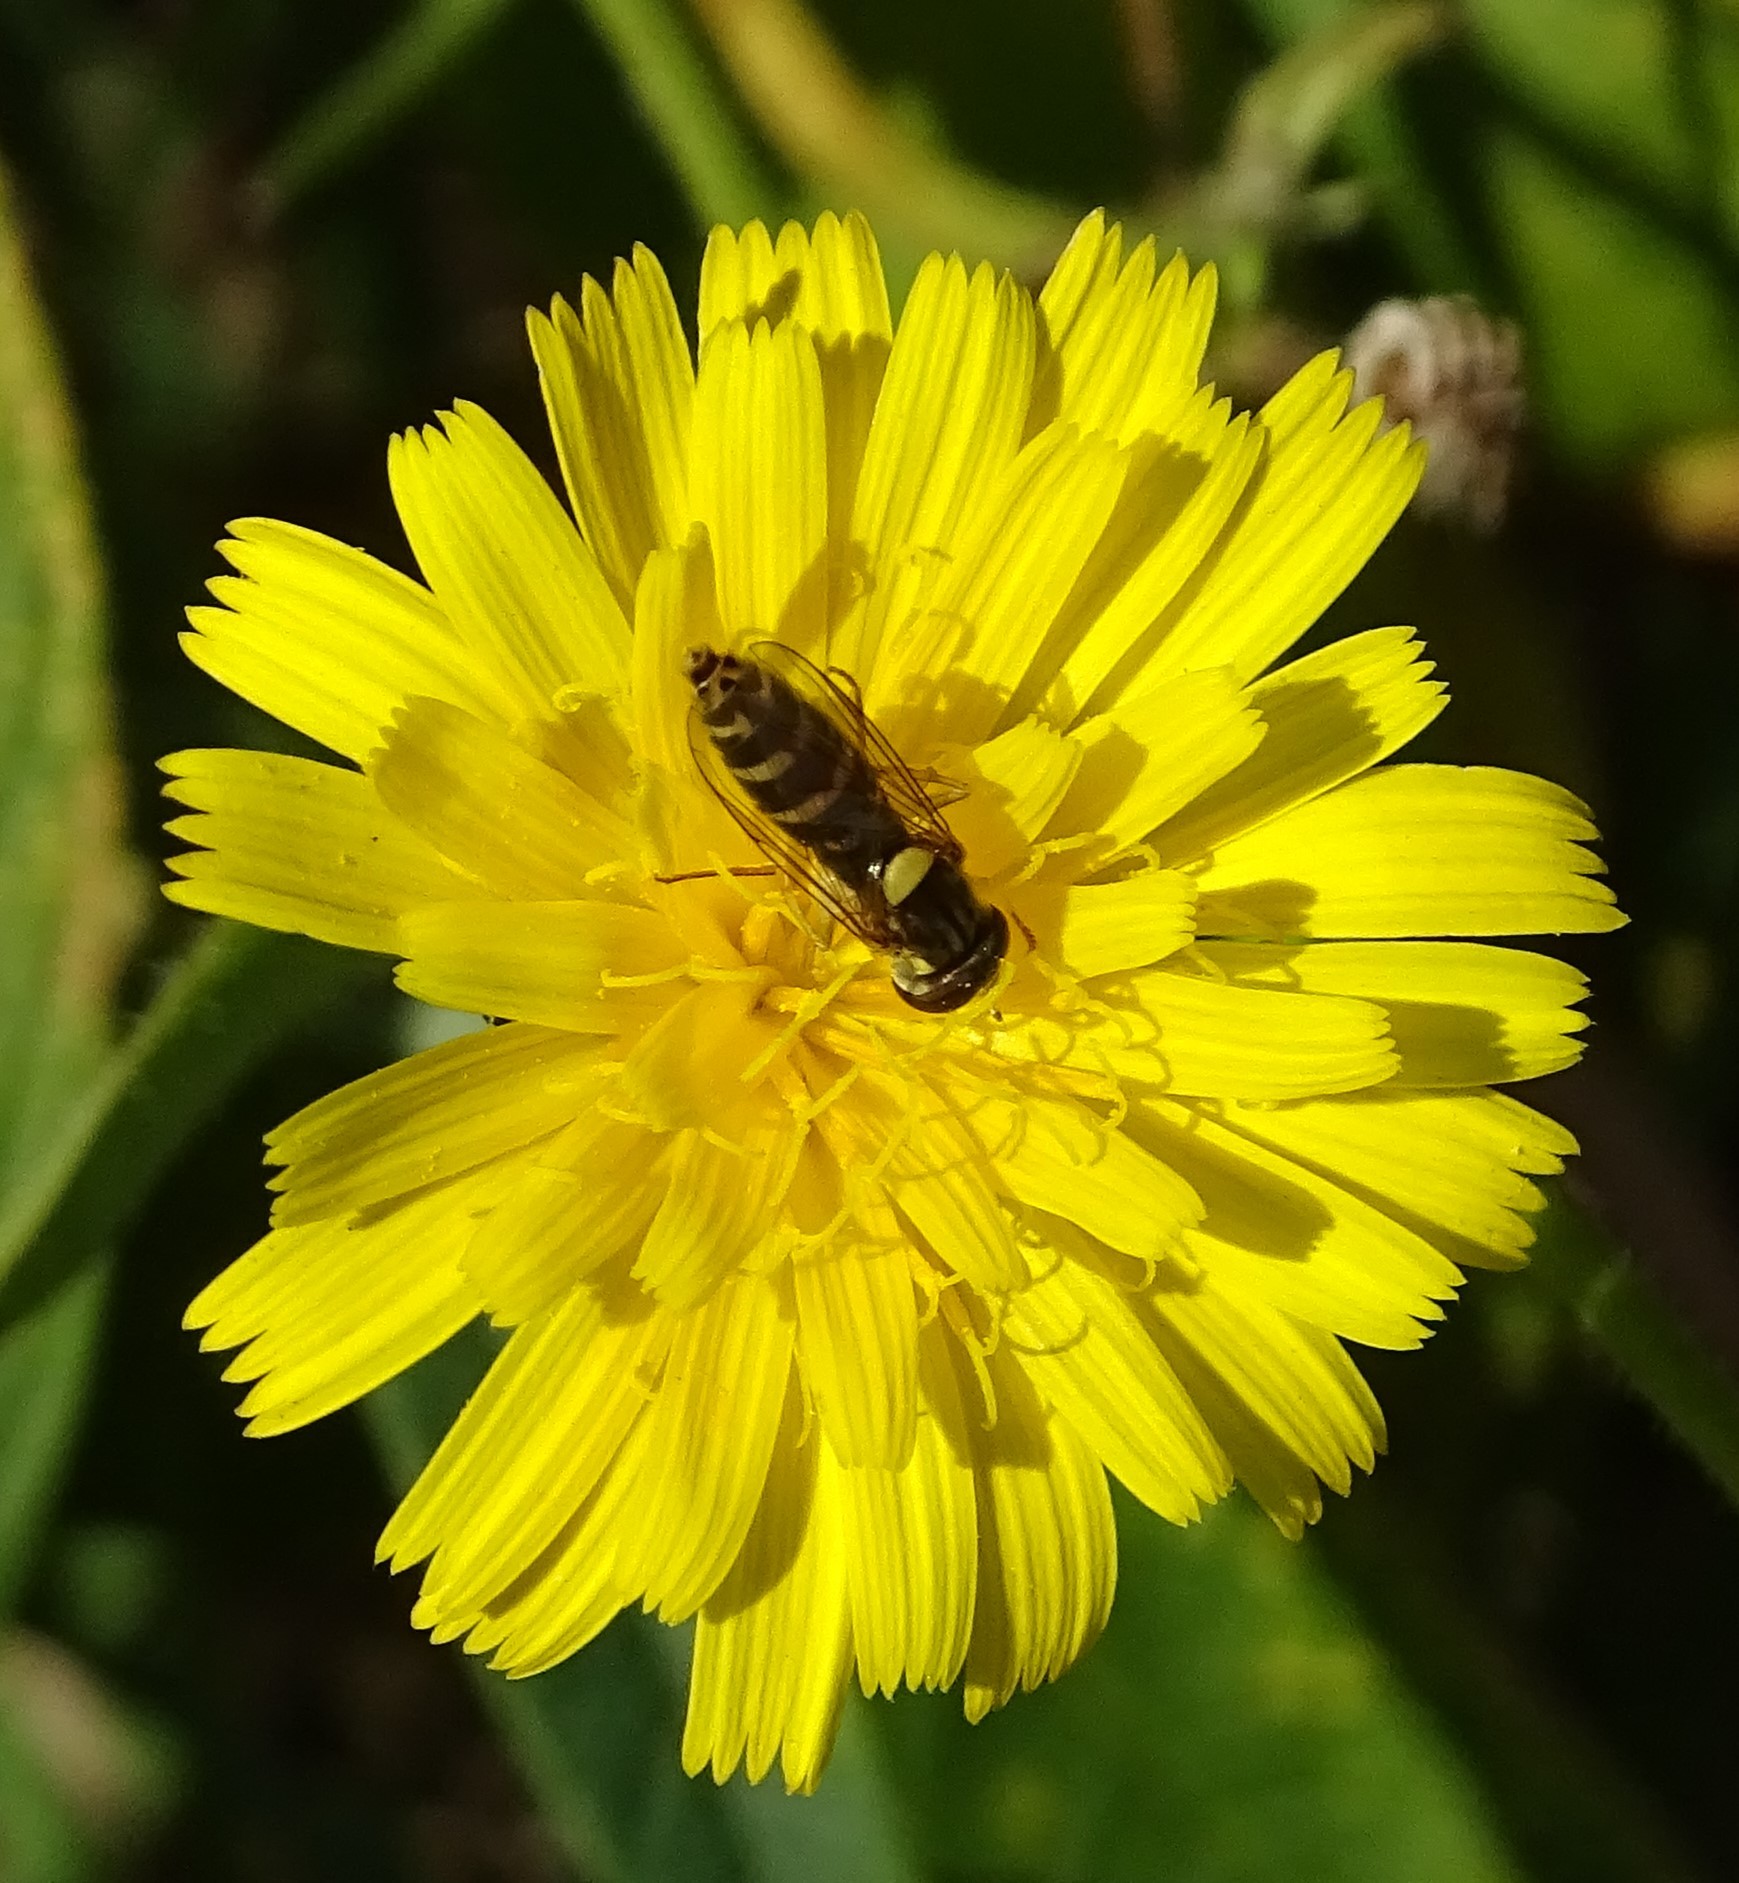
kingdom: Animalia
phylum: Arthropoda
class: Insecta
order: Diptera
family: Syrphidae
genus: Sphaerophoria
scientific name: Sphaerophoria
